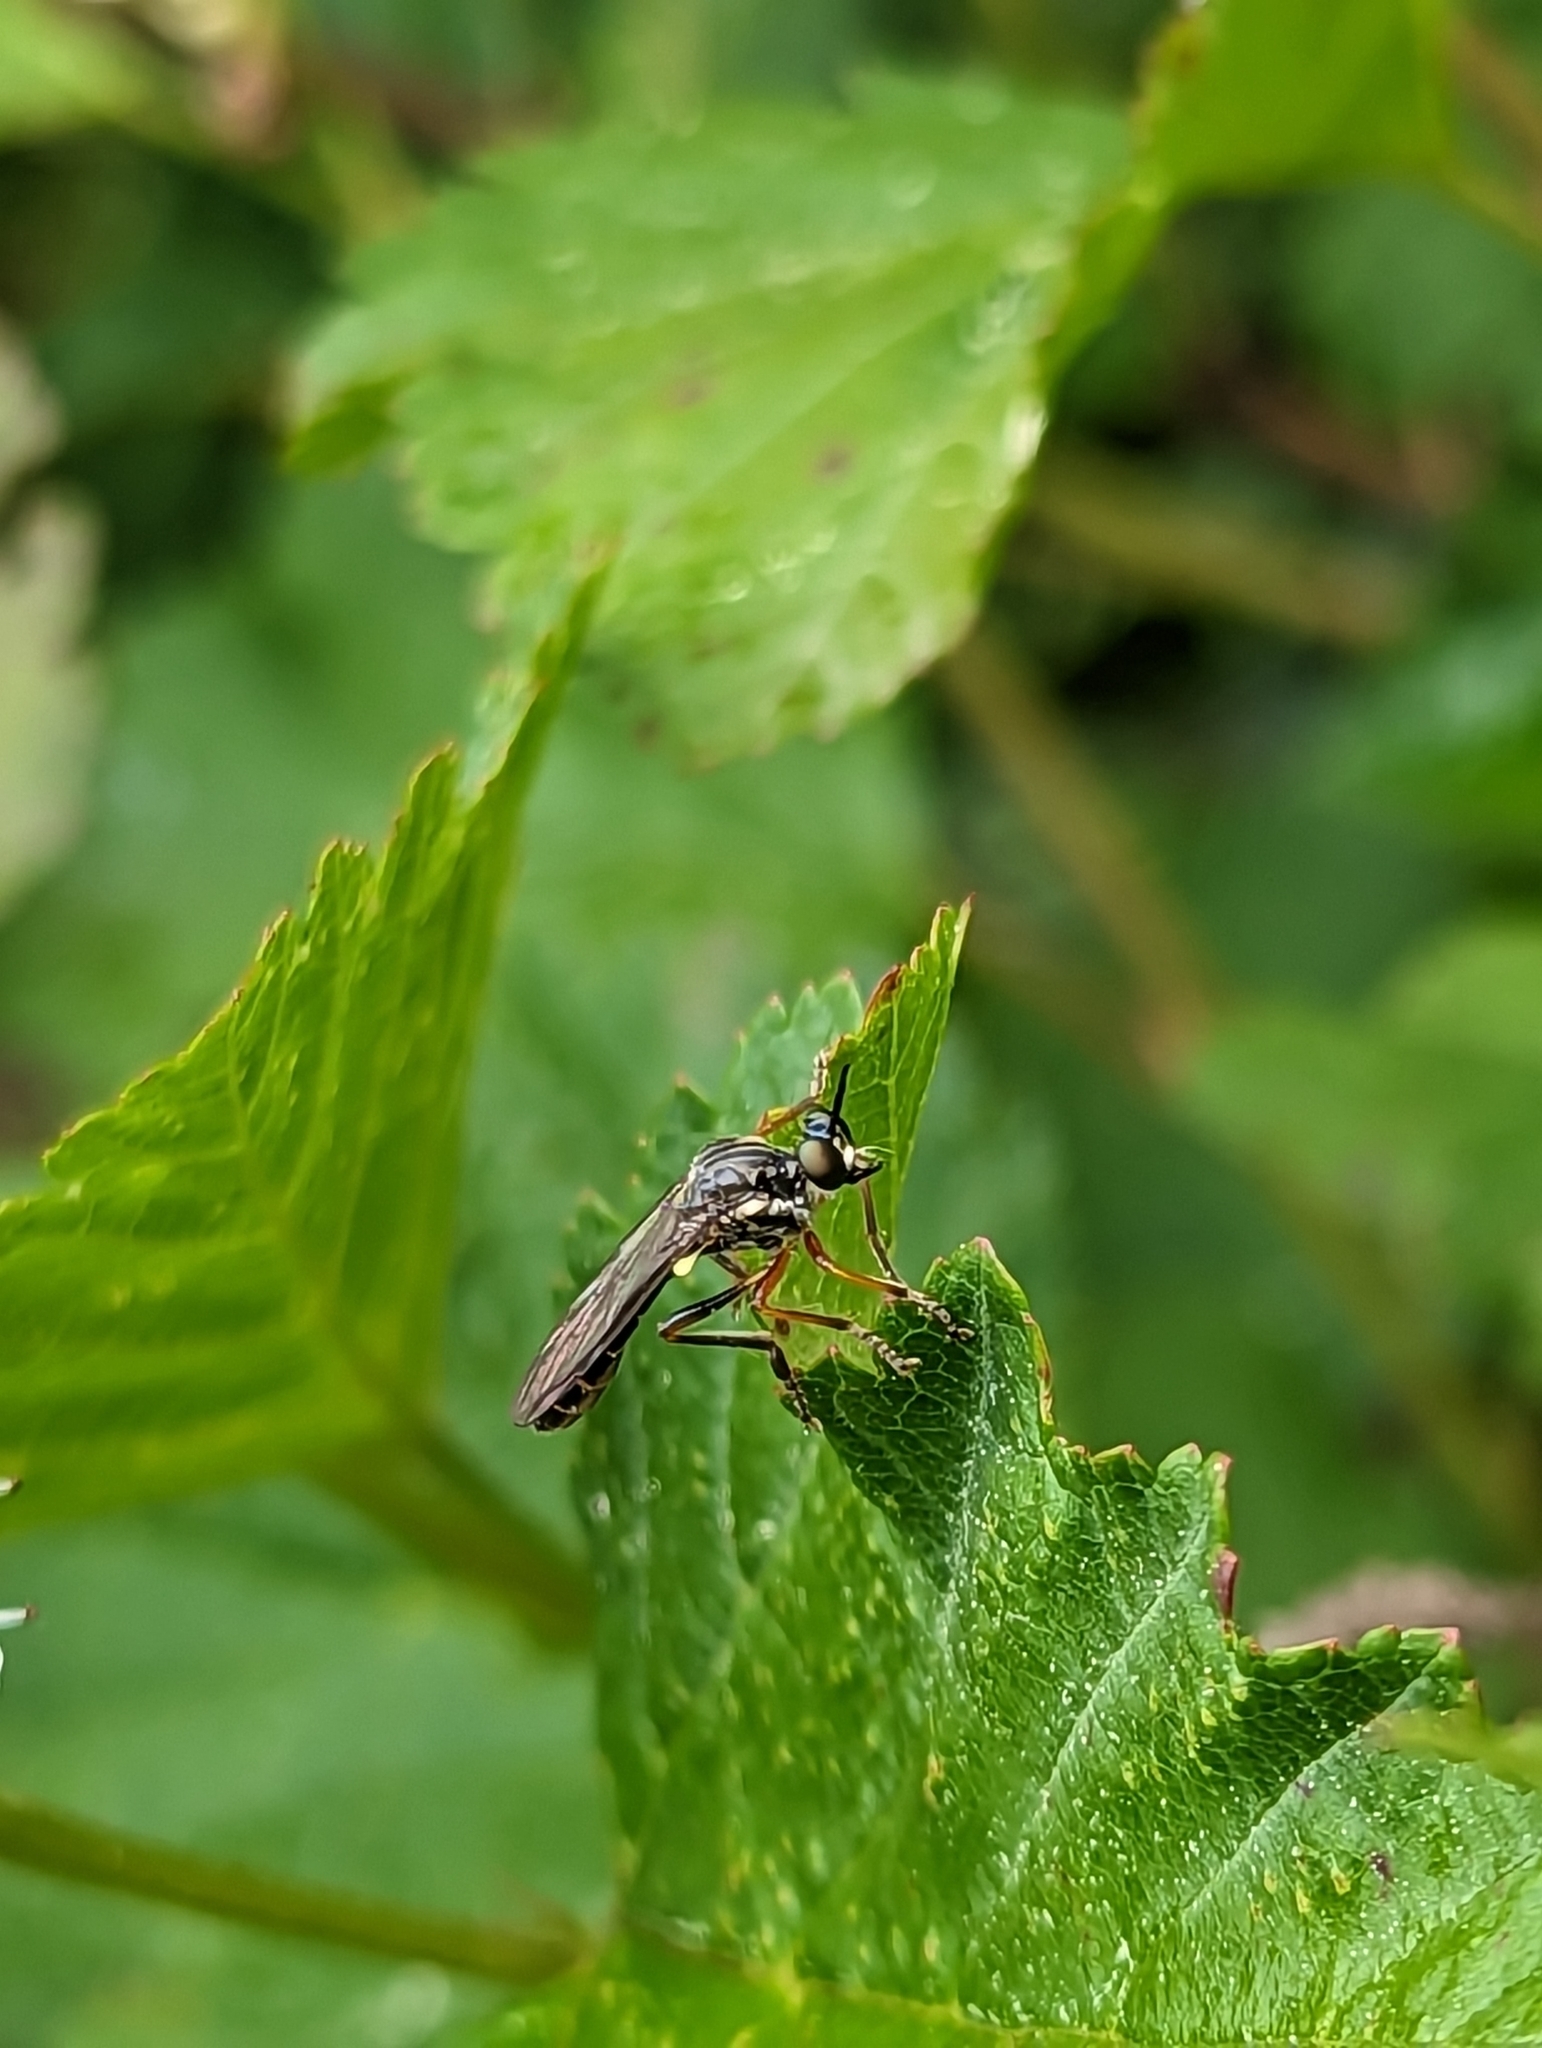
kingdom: Animalia
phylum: Arthropoda
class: Insecta
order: Diptera
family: Asilidae
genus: Dioctria
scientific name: Dioctria hyalipennis
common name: Stripe-legged robberfly
